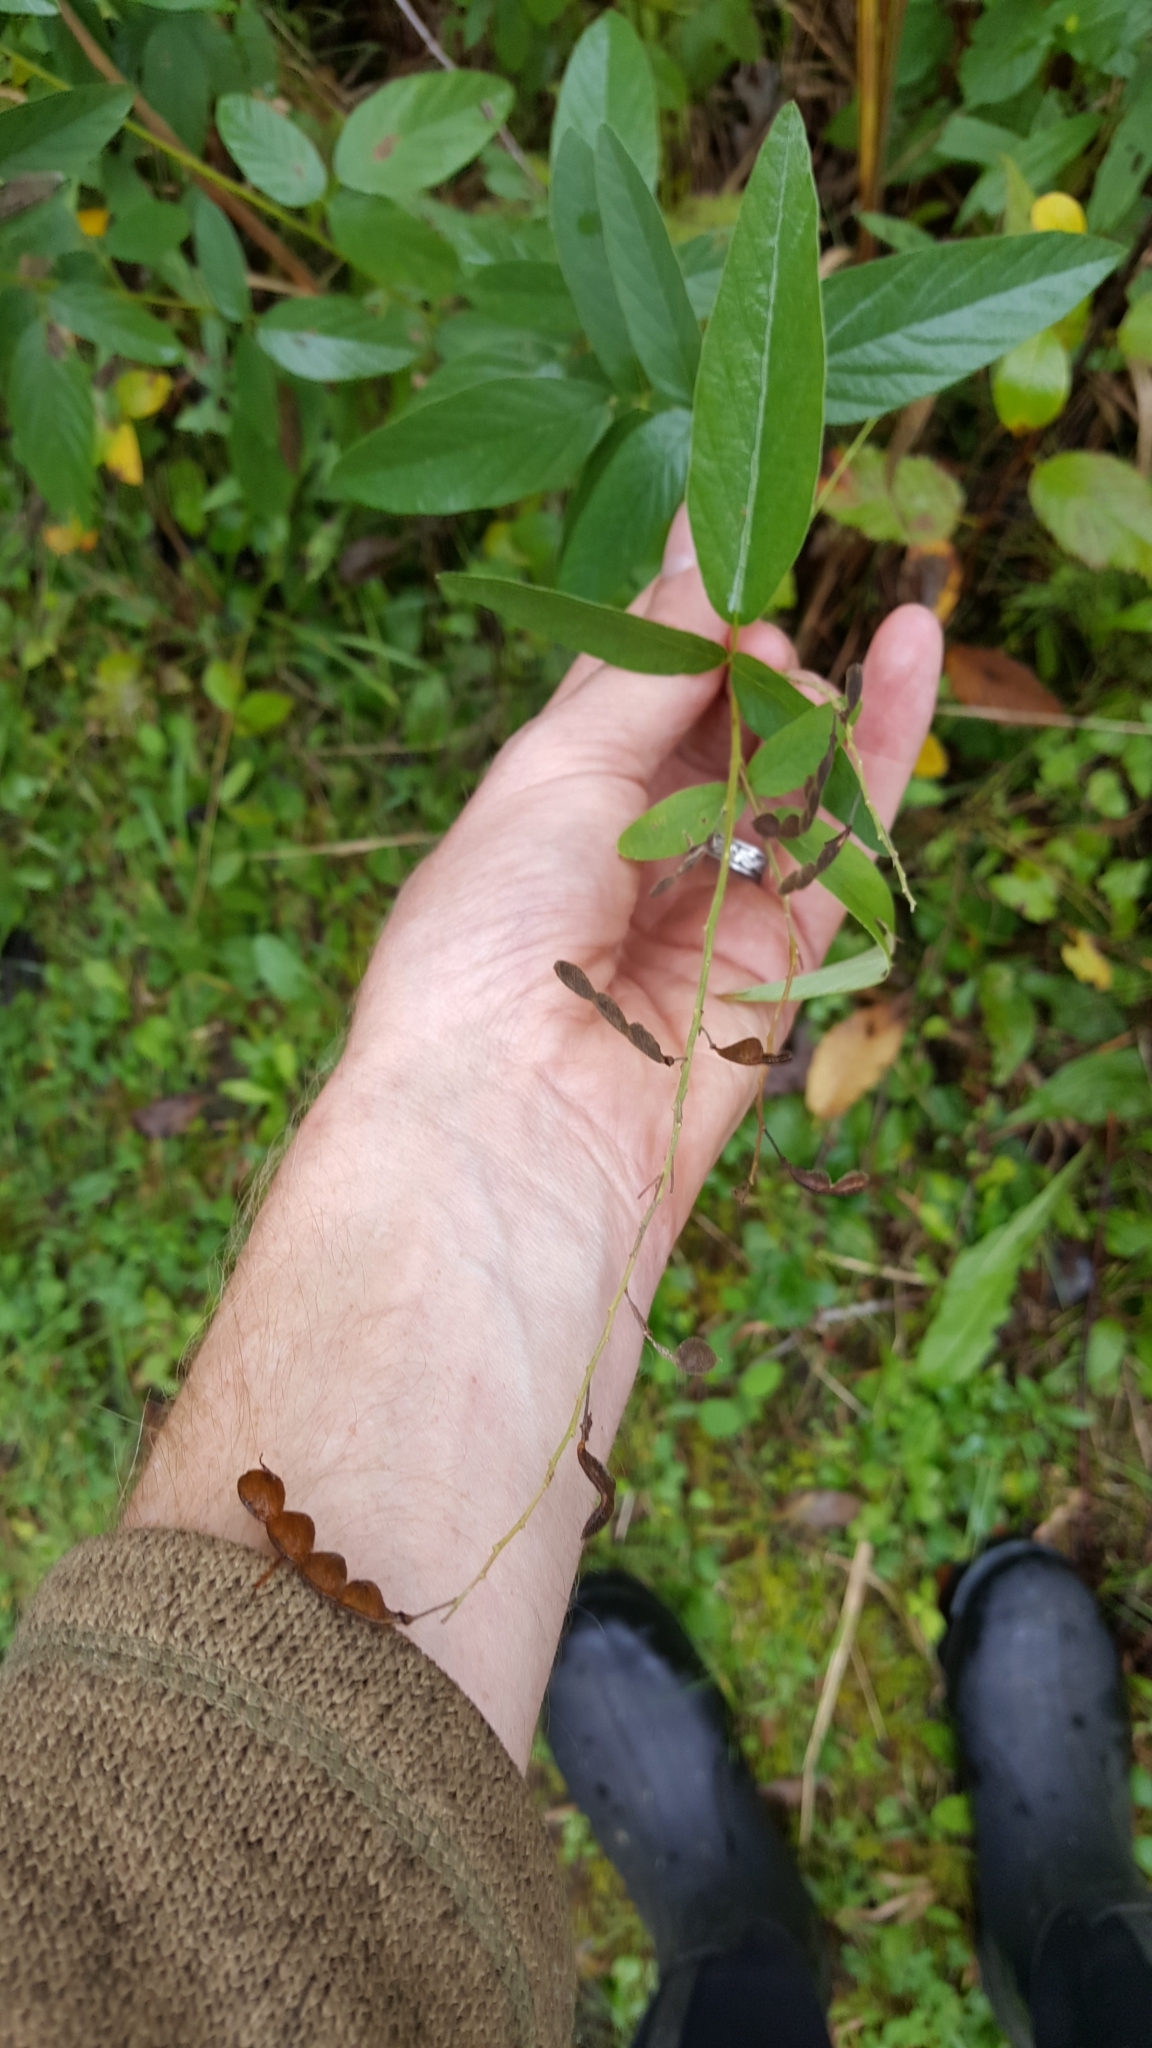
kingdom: Plantae
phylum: Tracheophyta
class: Magnoliopsida
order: Fabales
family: Fabaceae
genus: Desmodium
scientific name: Desmodium paniculatum
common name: Panicled tick-clover
